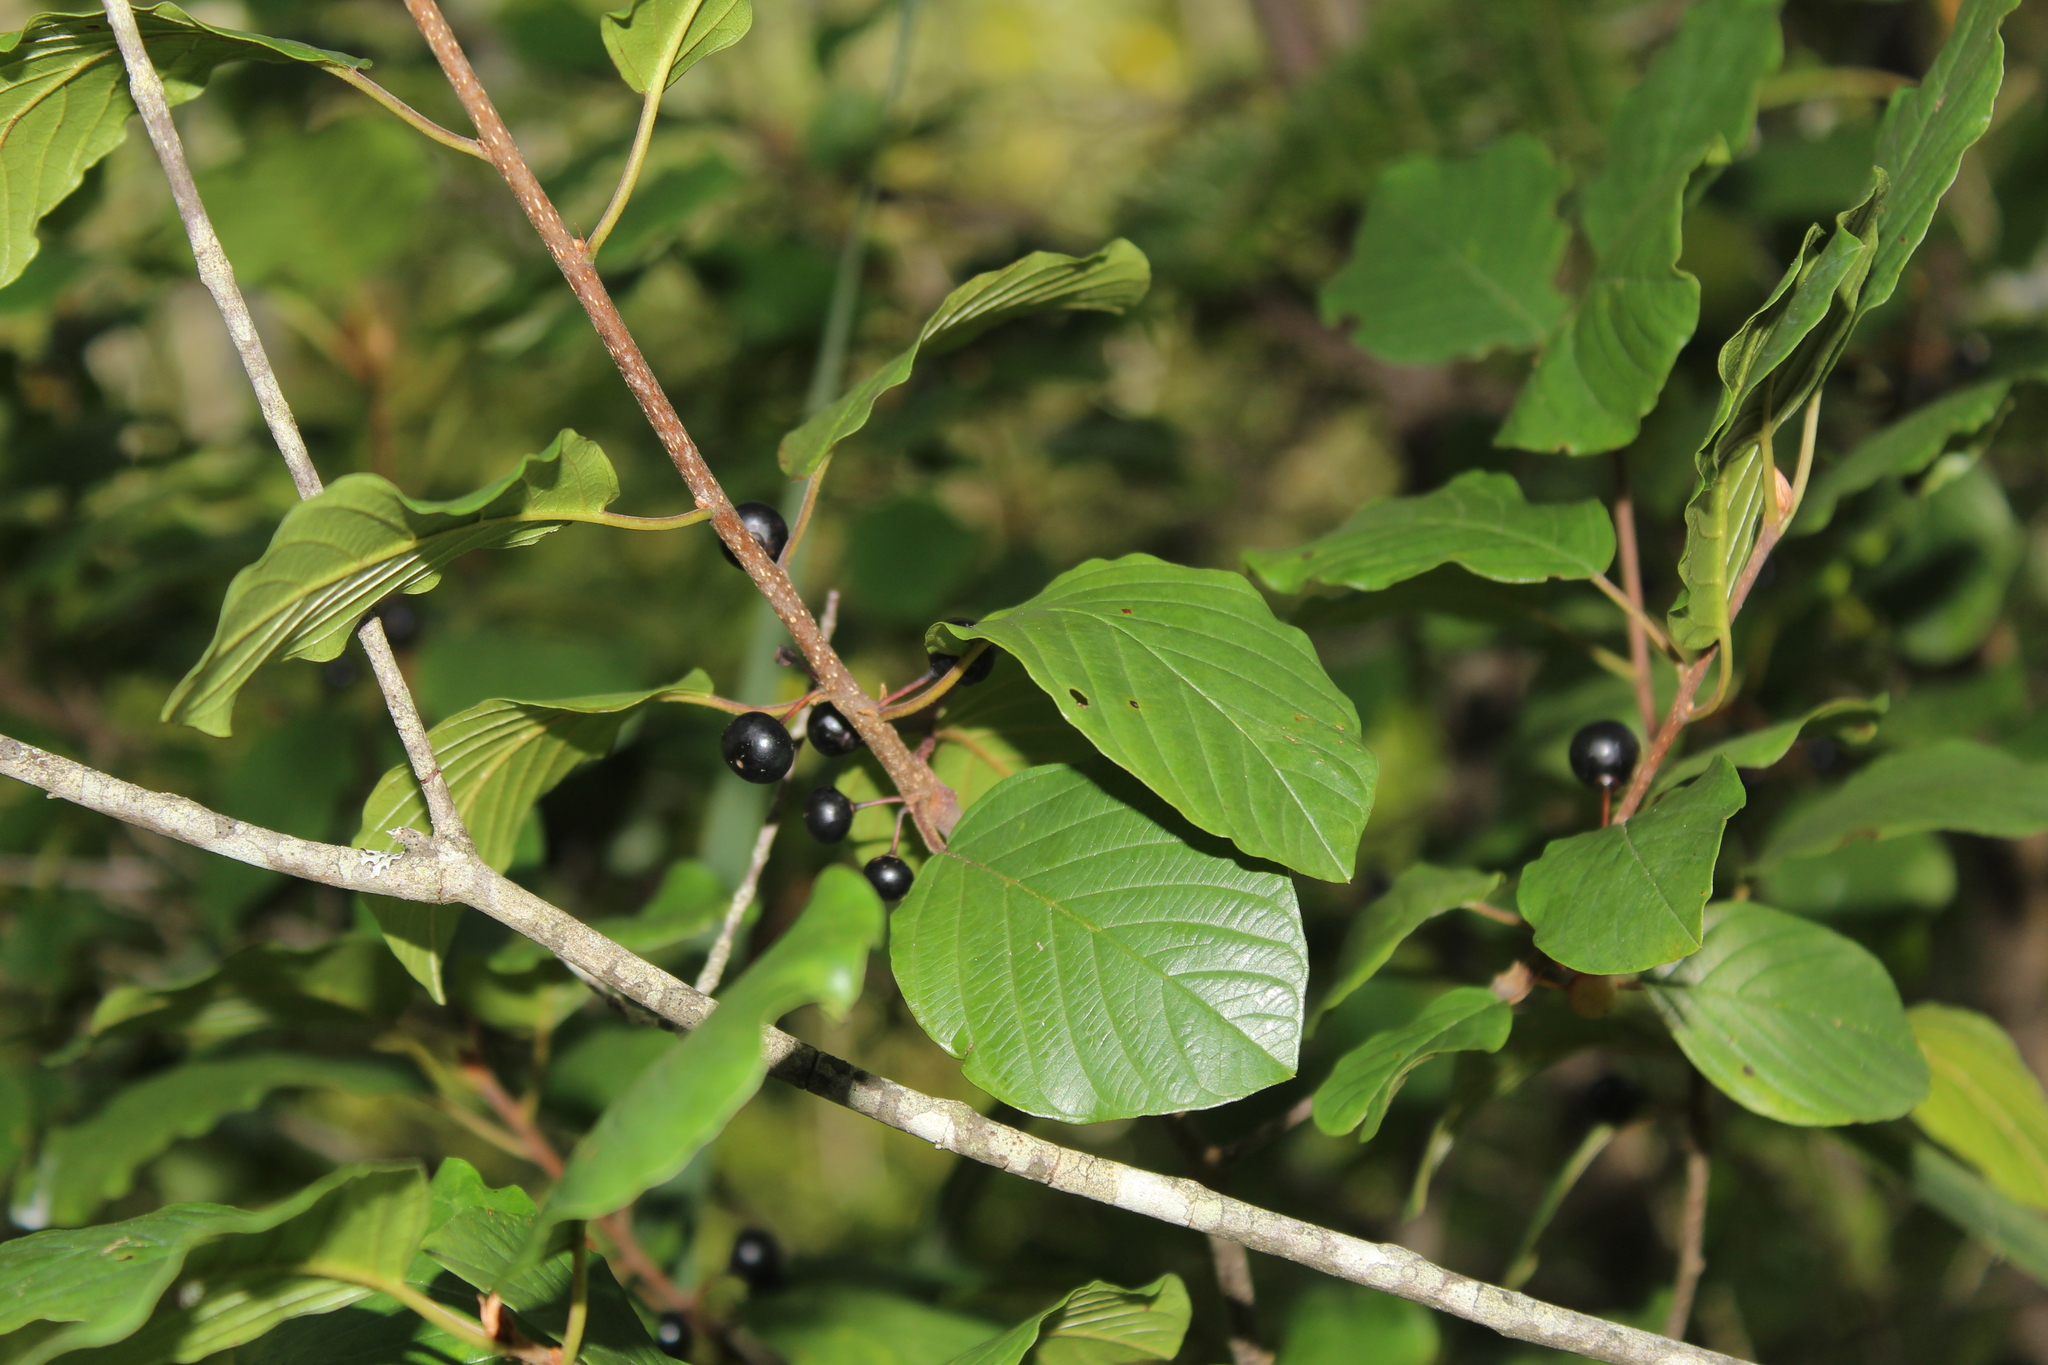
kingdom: Plantae
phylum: Tracheophyta
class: Magnoliopsida
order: Rosales
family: Rhamnaceae
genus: Frangula
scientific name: Frangula alnus
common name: Alder buckthorn
